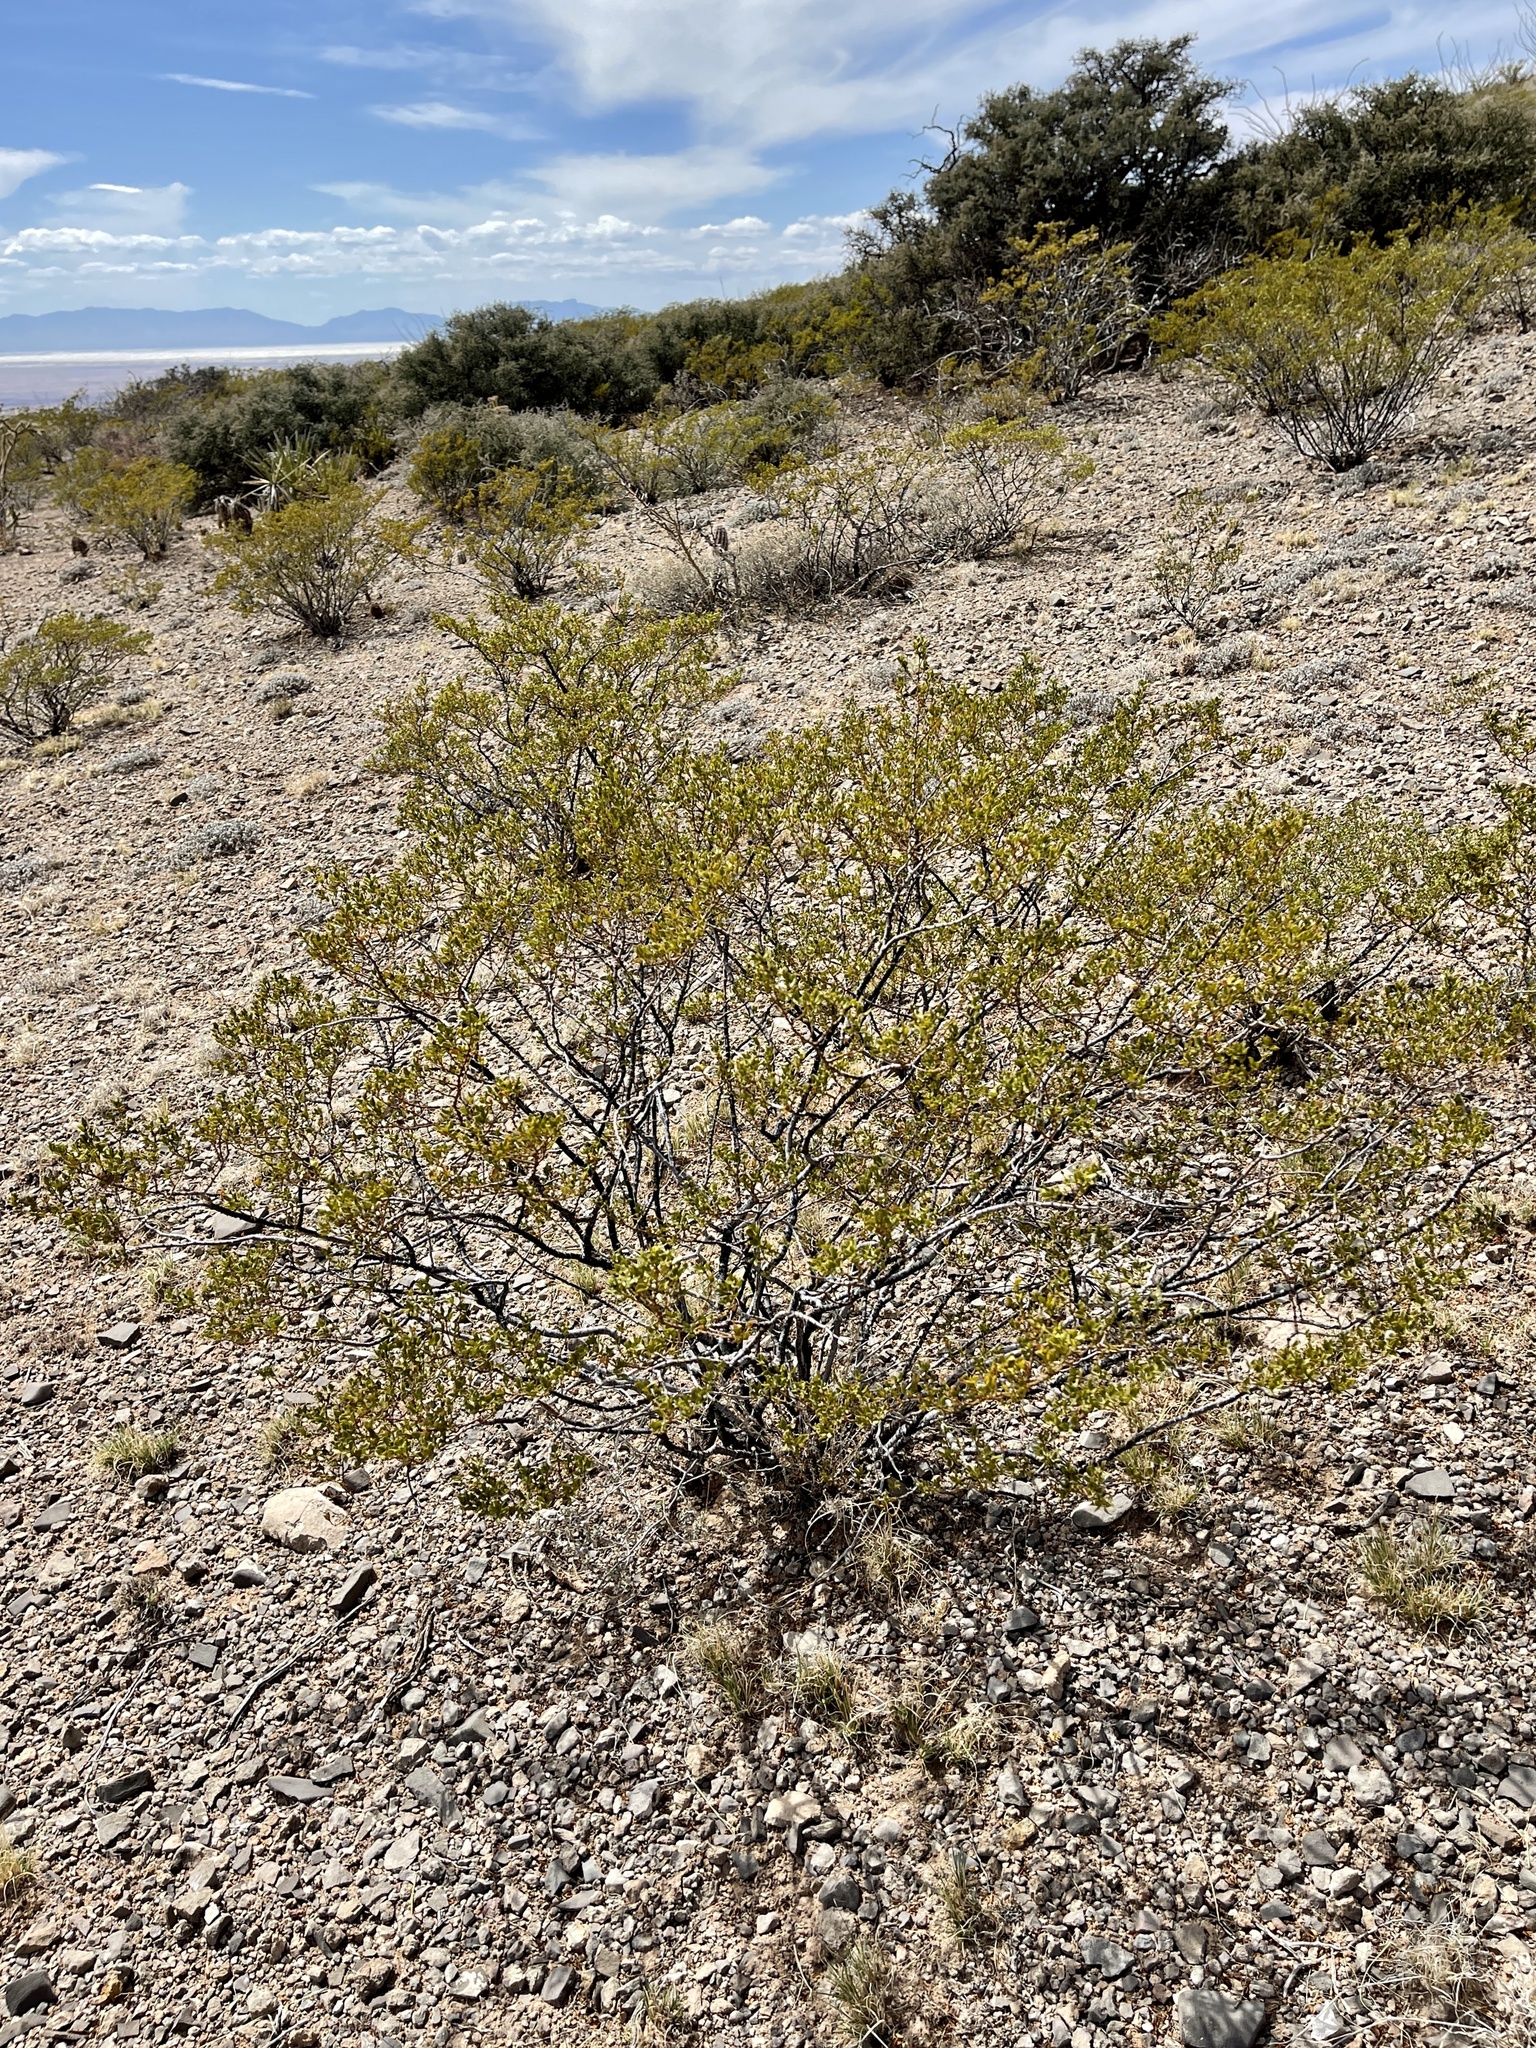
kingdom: Plantae
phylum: Tracheophyta
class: Magnoliopsida
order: Zygophyllales
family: Zygophyllaceae
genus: Larrea
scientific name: Larrea tridentata
